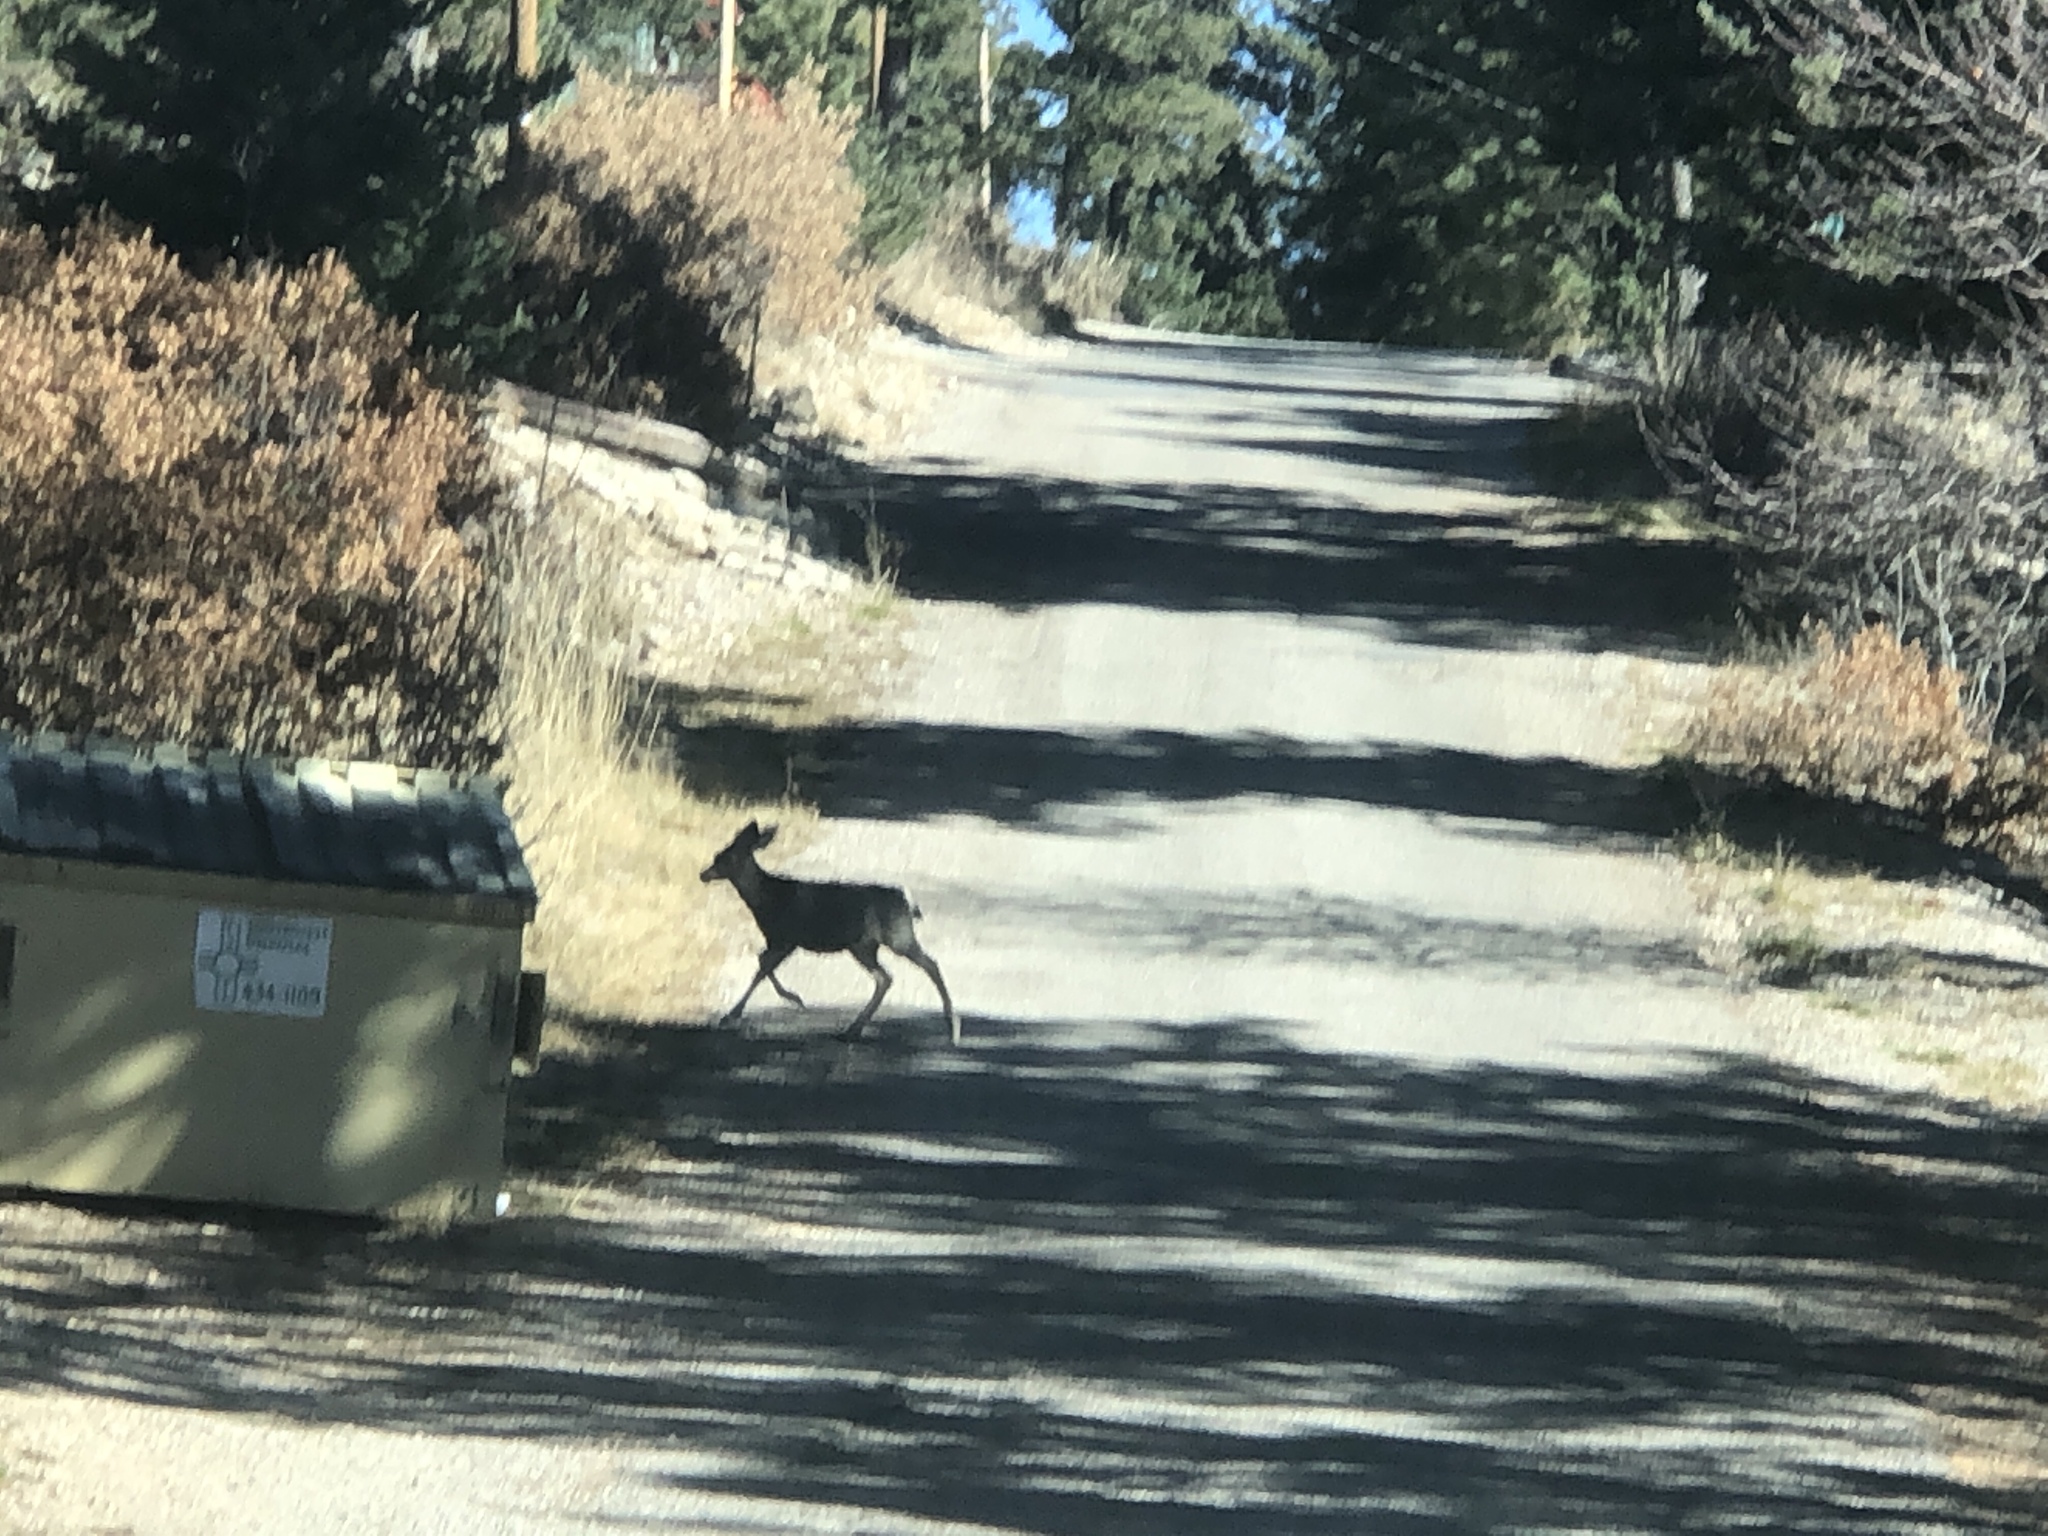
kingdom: Animalia
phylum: Chordata
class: Mammalia
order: Artiodactyla
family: Cervidae
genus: Odocoileus
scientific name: Odocoileus hemionus
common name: Mule deer
